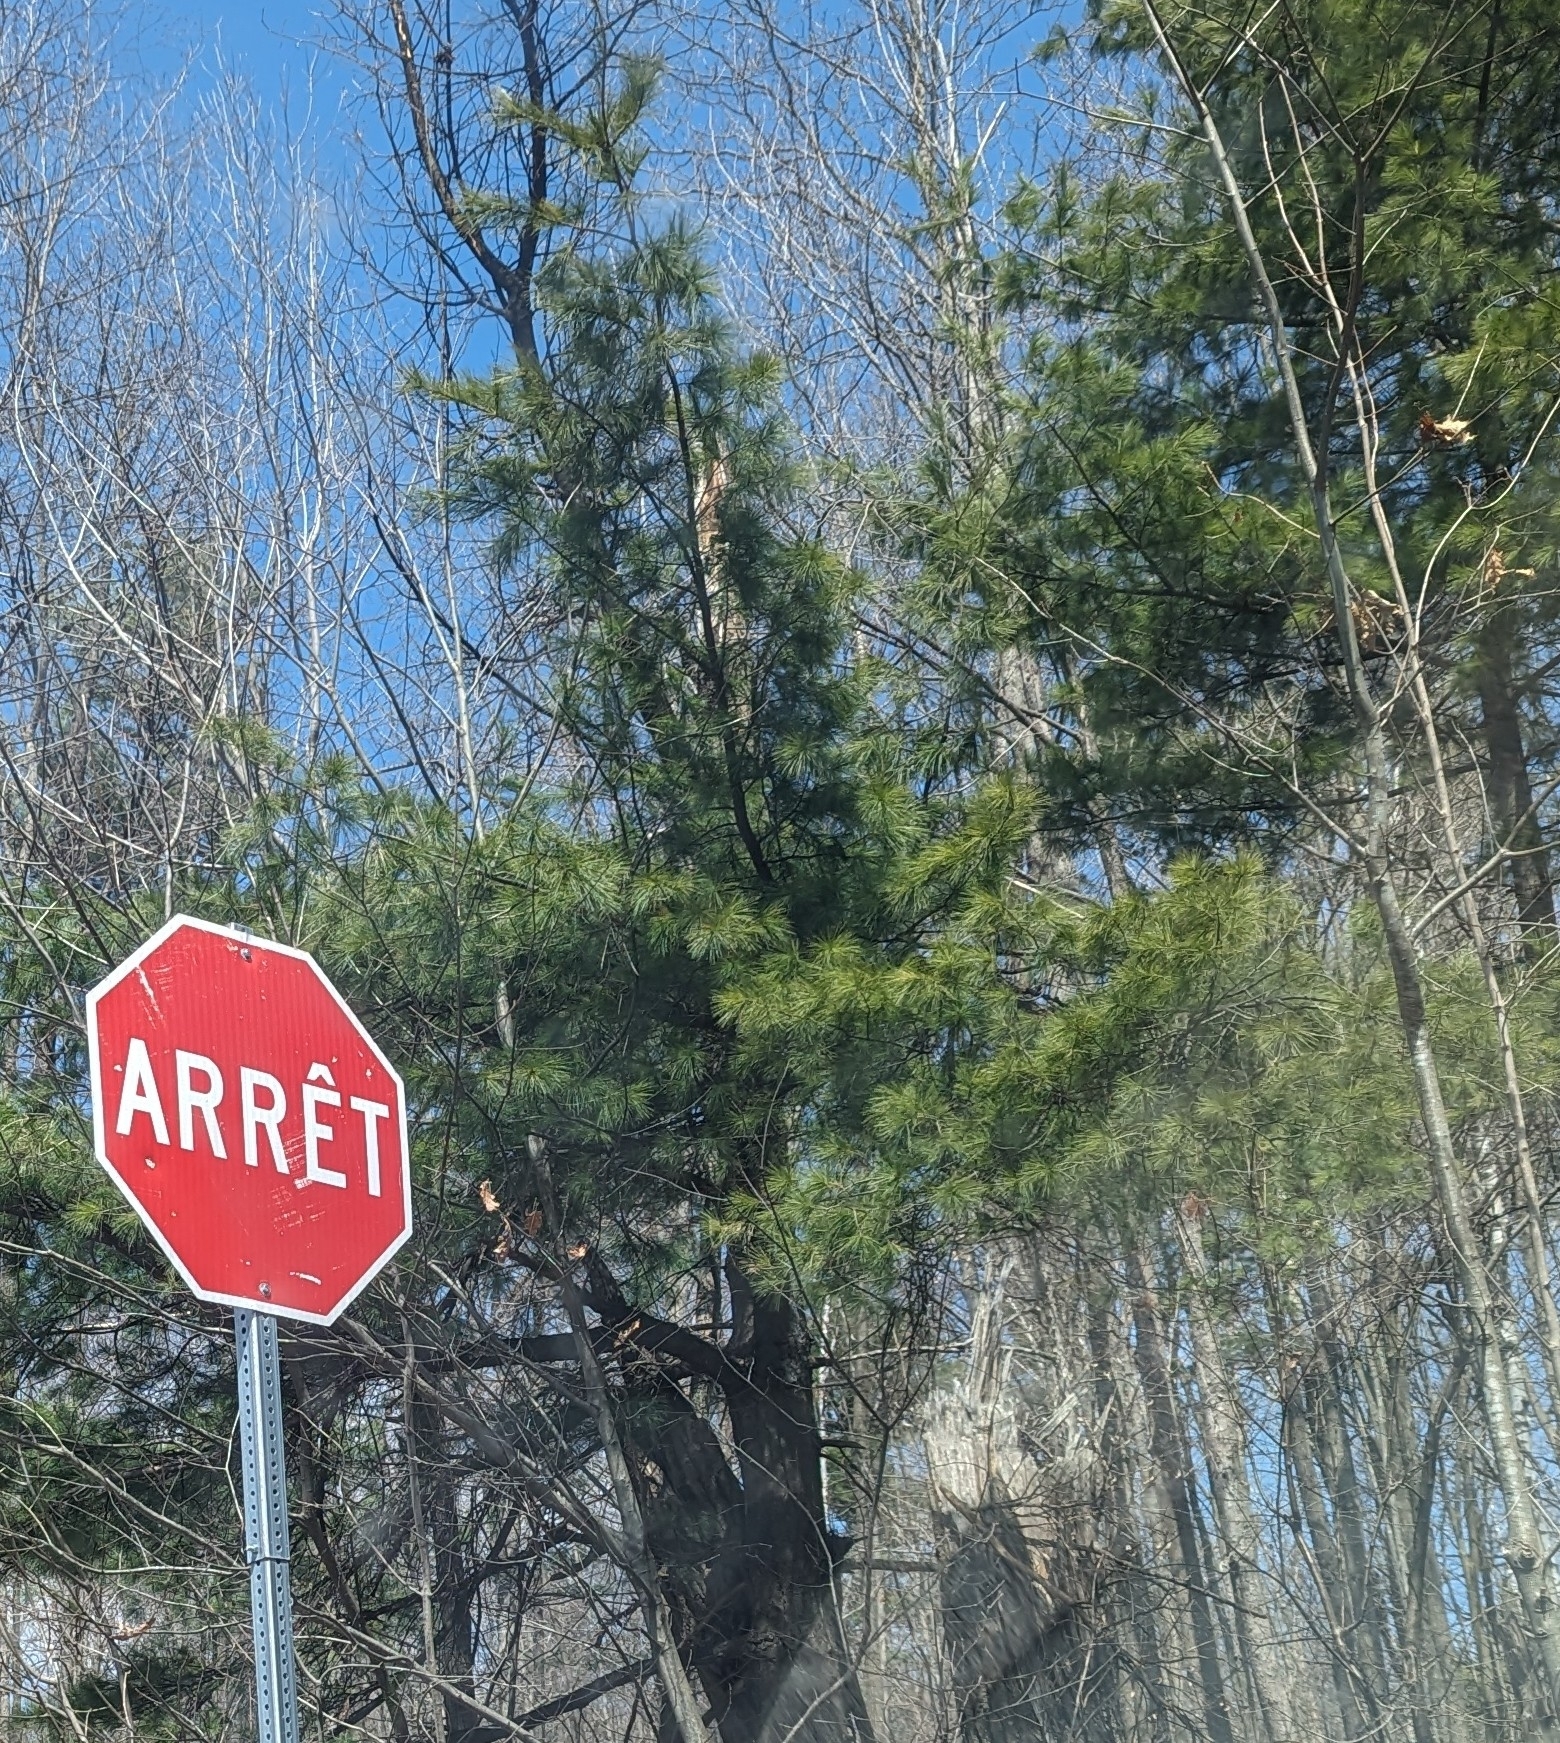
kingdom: Plantae
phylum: Tracheophyta
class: Pinopsida
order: Pinales
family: Pinaceae
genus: Pinus
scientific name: Pinus strobus
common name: Weymouth pine
